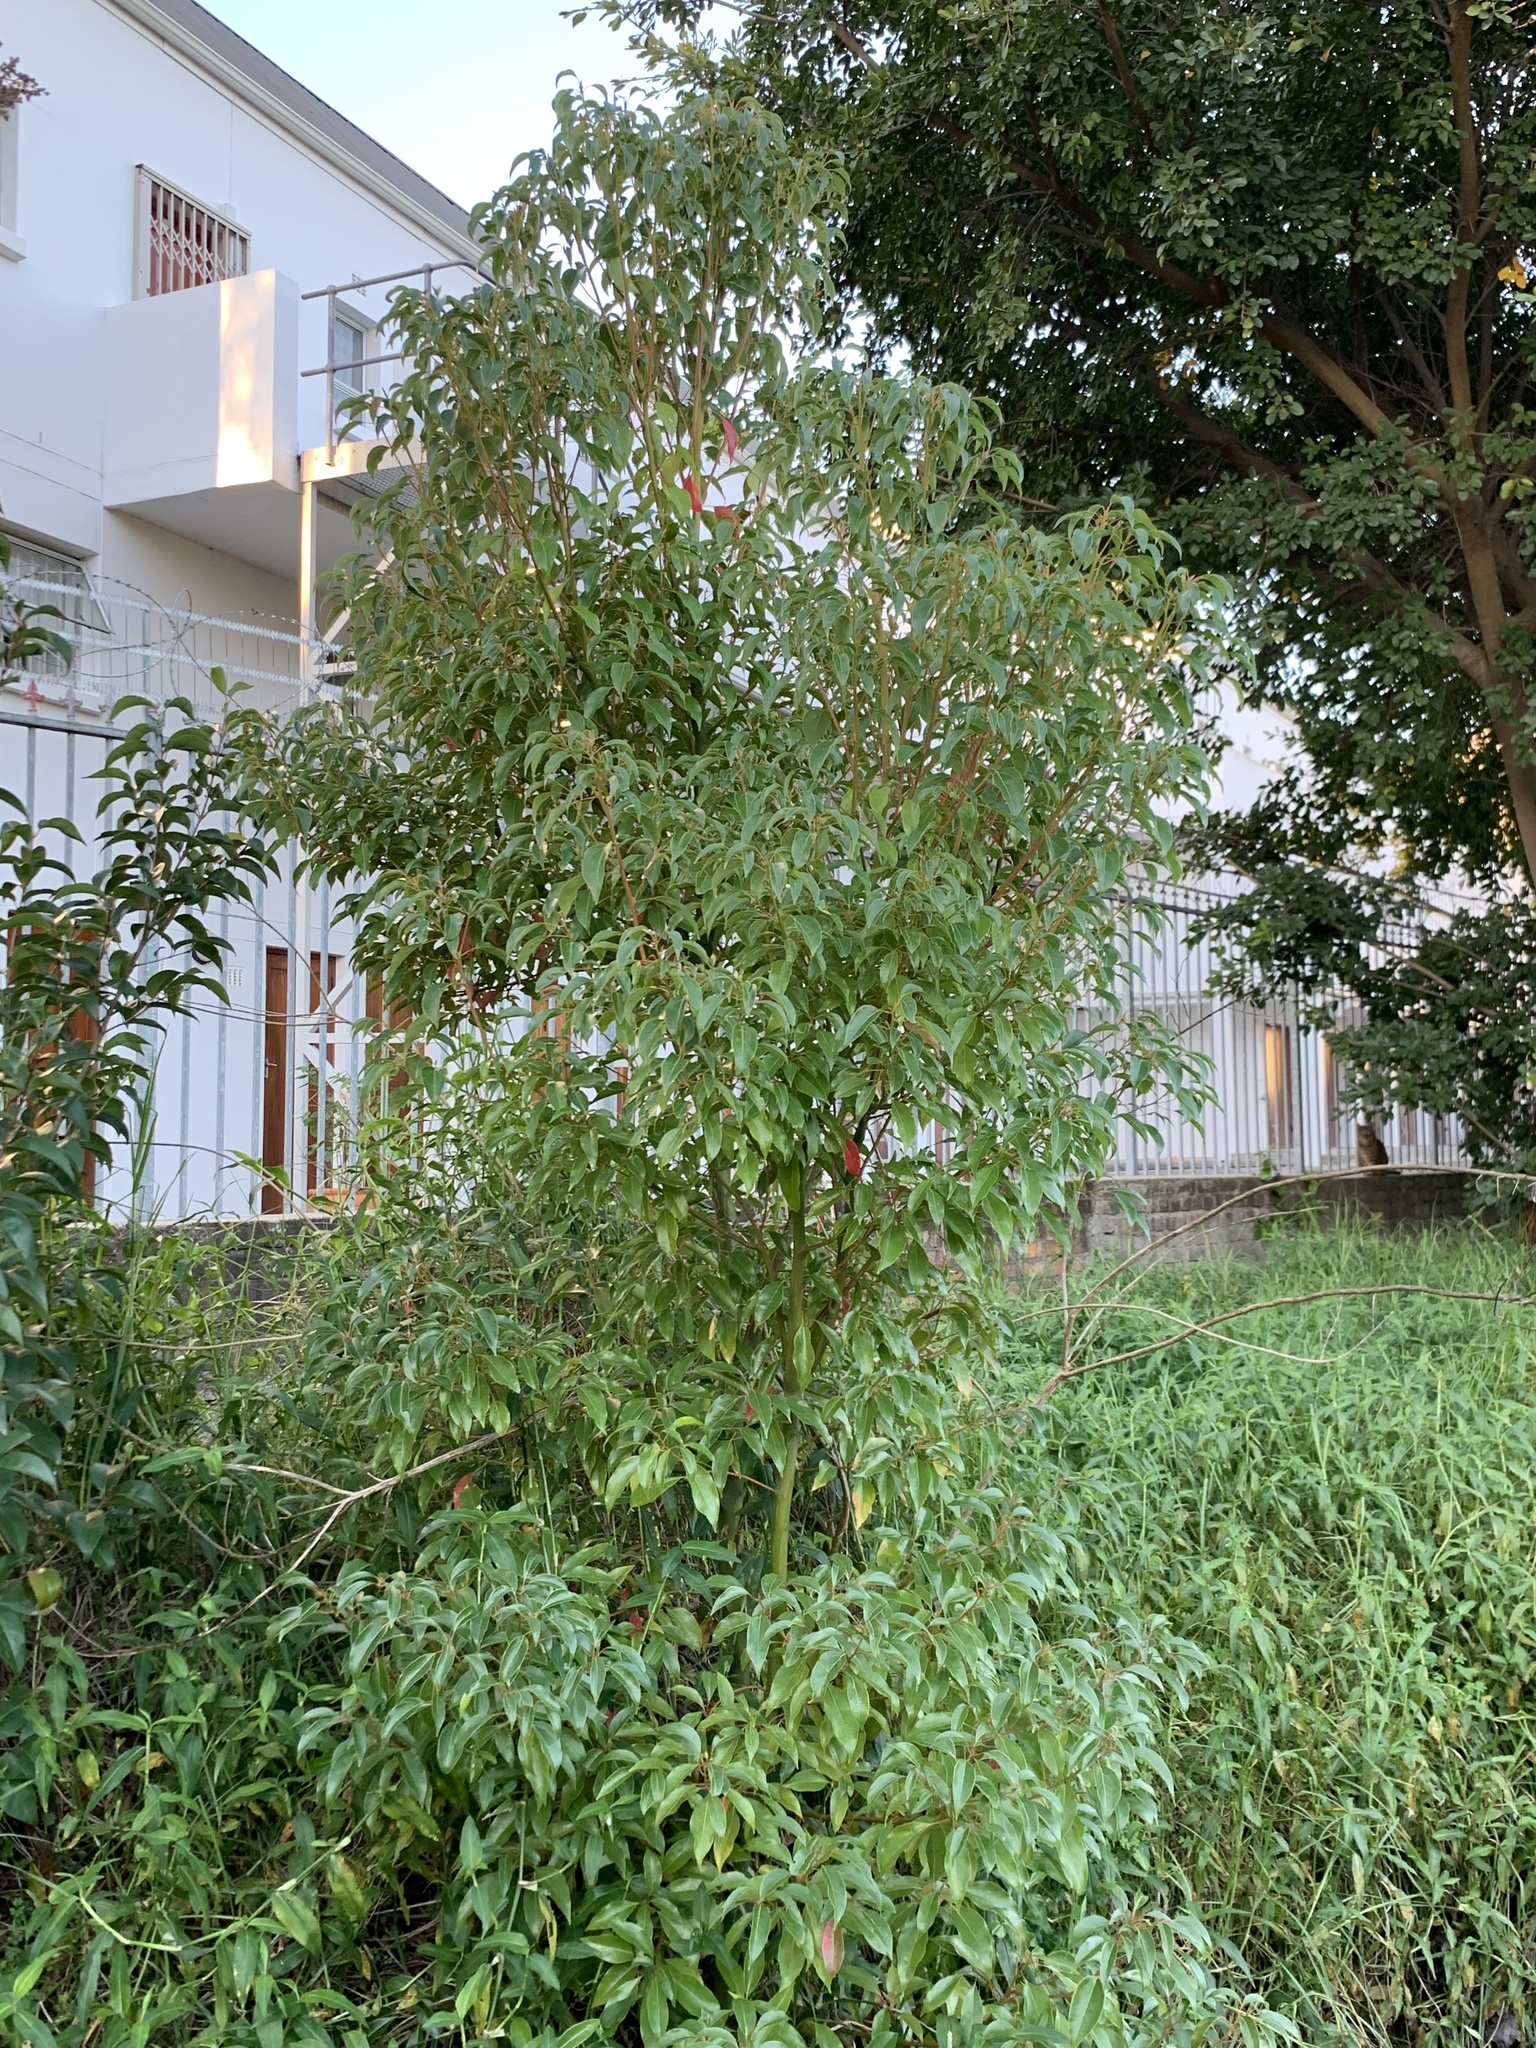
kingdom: Plantae
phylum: Tracheophyta
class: Magnoliopsida
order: Laurales
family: Lauraceae
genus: Cinnamomum
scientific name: Cinnamomum camphora
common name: Camphortree
